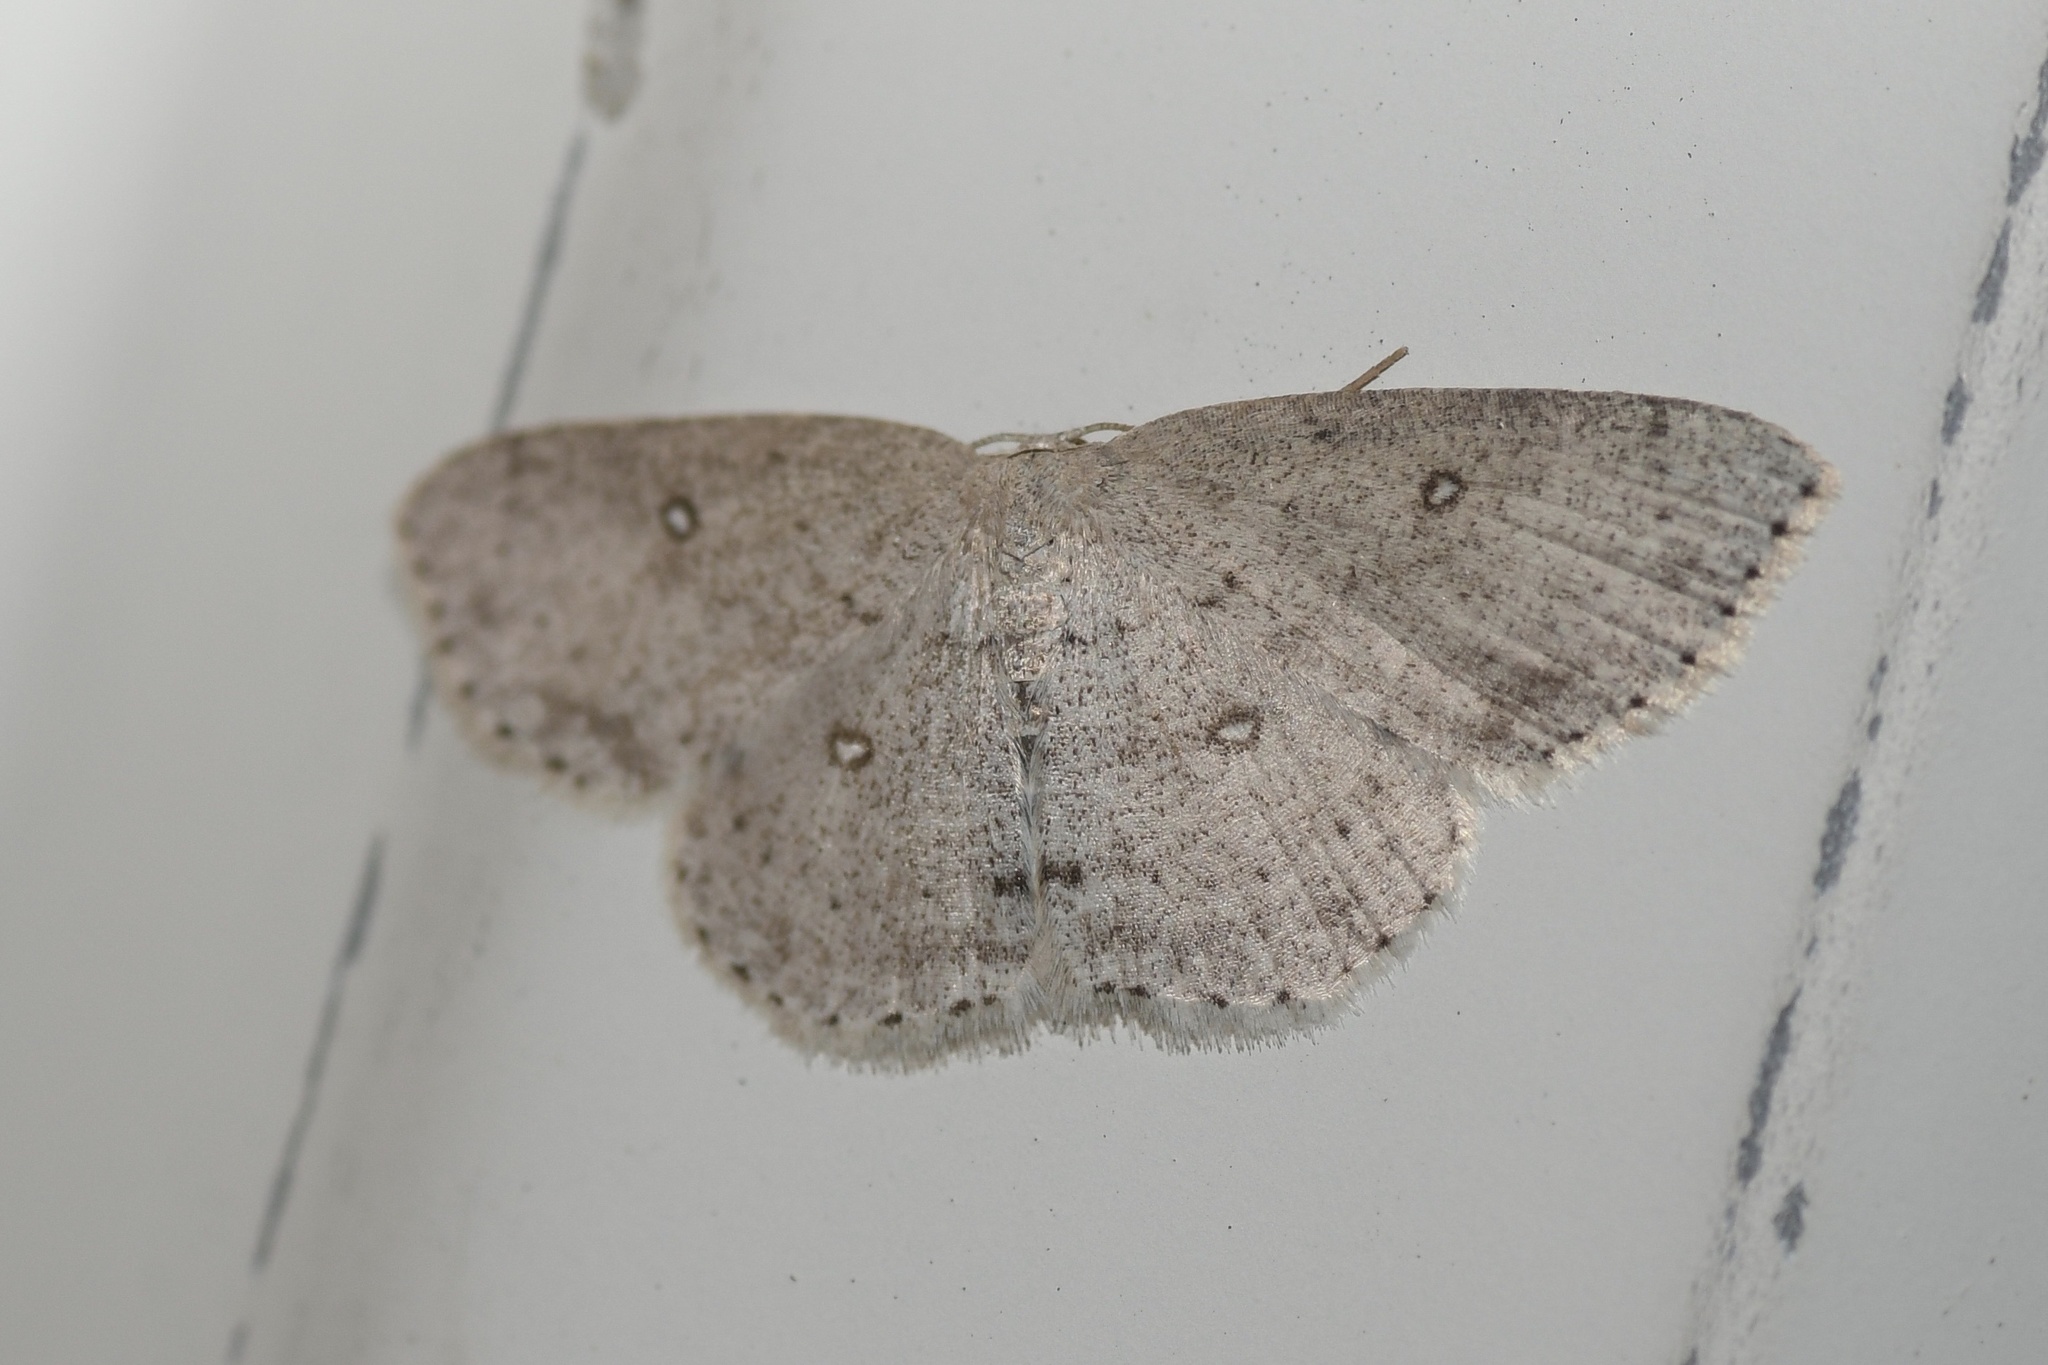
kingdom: Animalia
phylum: Arthropoda
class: Insecta
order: Lepidoptera
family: Geometridae
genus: Cyclophora
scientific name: Cyclophora pendulinaria
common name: Sweet fern geometer
